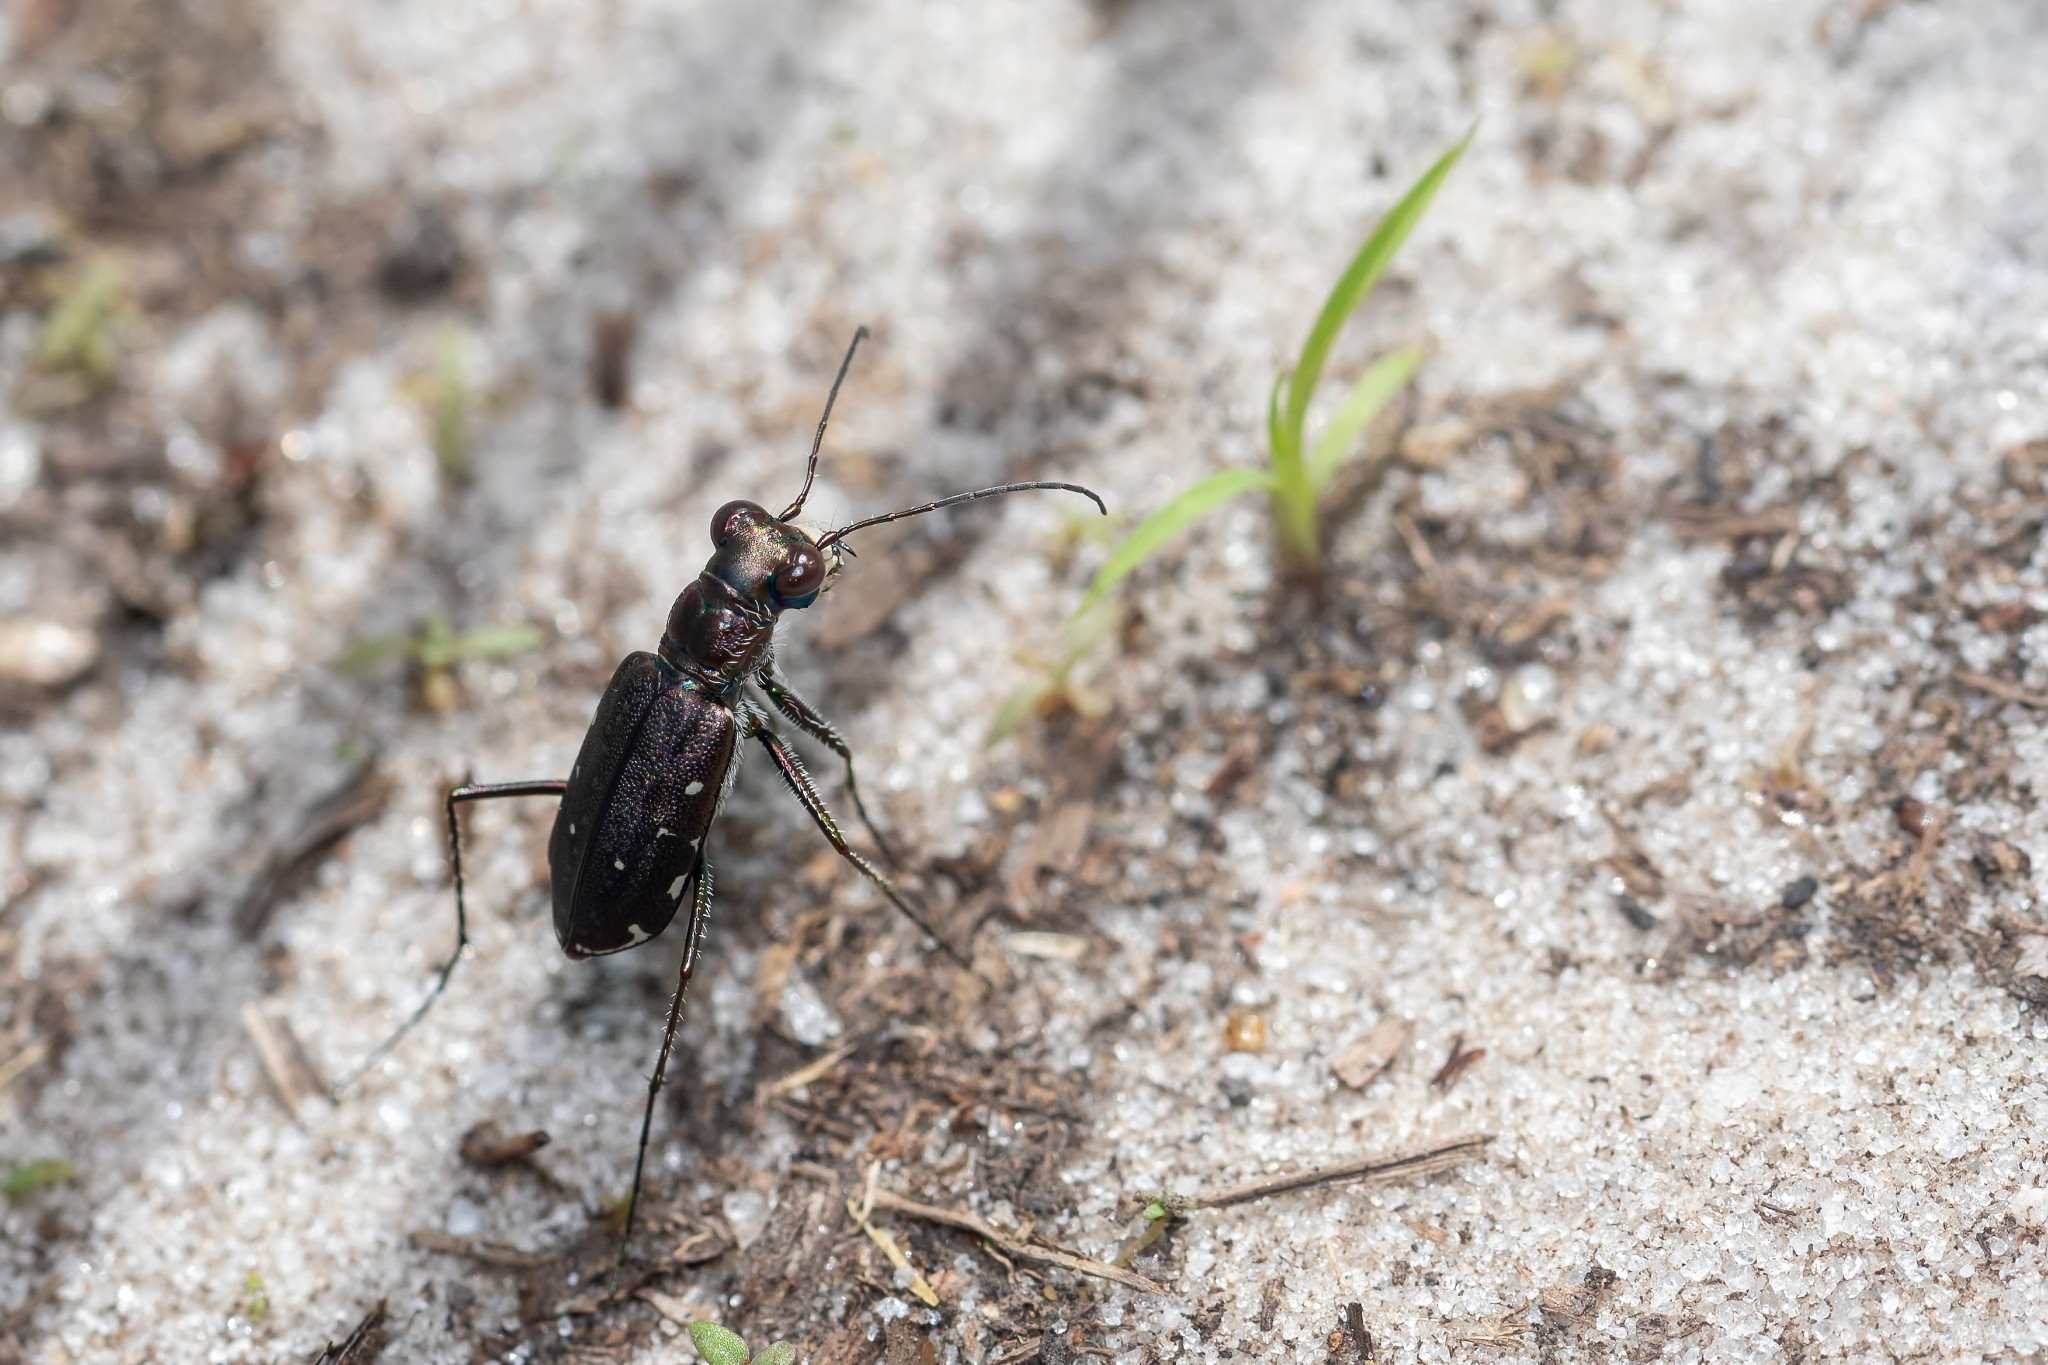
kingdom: Animalia
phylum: Arthropoda
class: Insecta
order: Coleoptera
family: Carabidae
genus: Cicindela
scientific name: Cicindela punctulata
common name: Punctured tiger beetle
